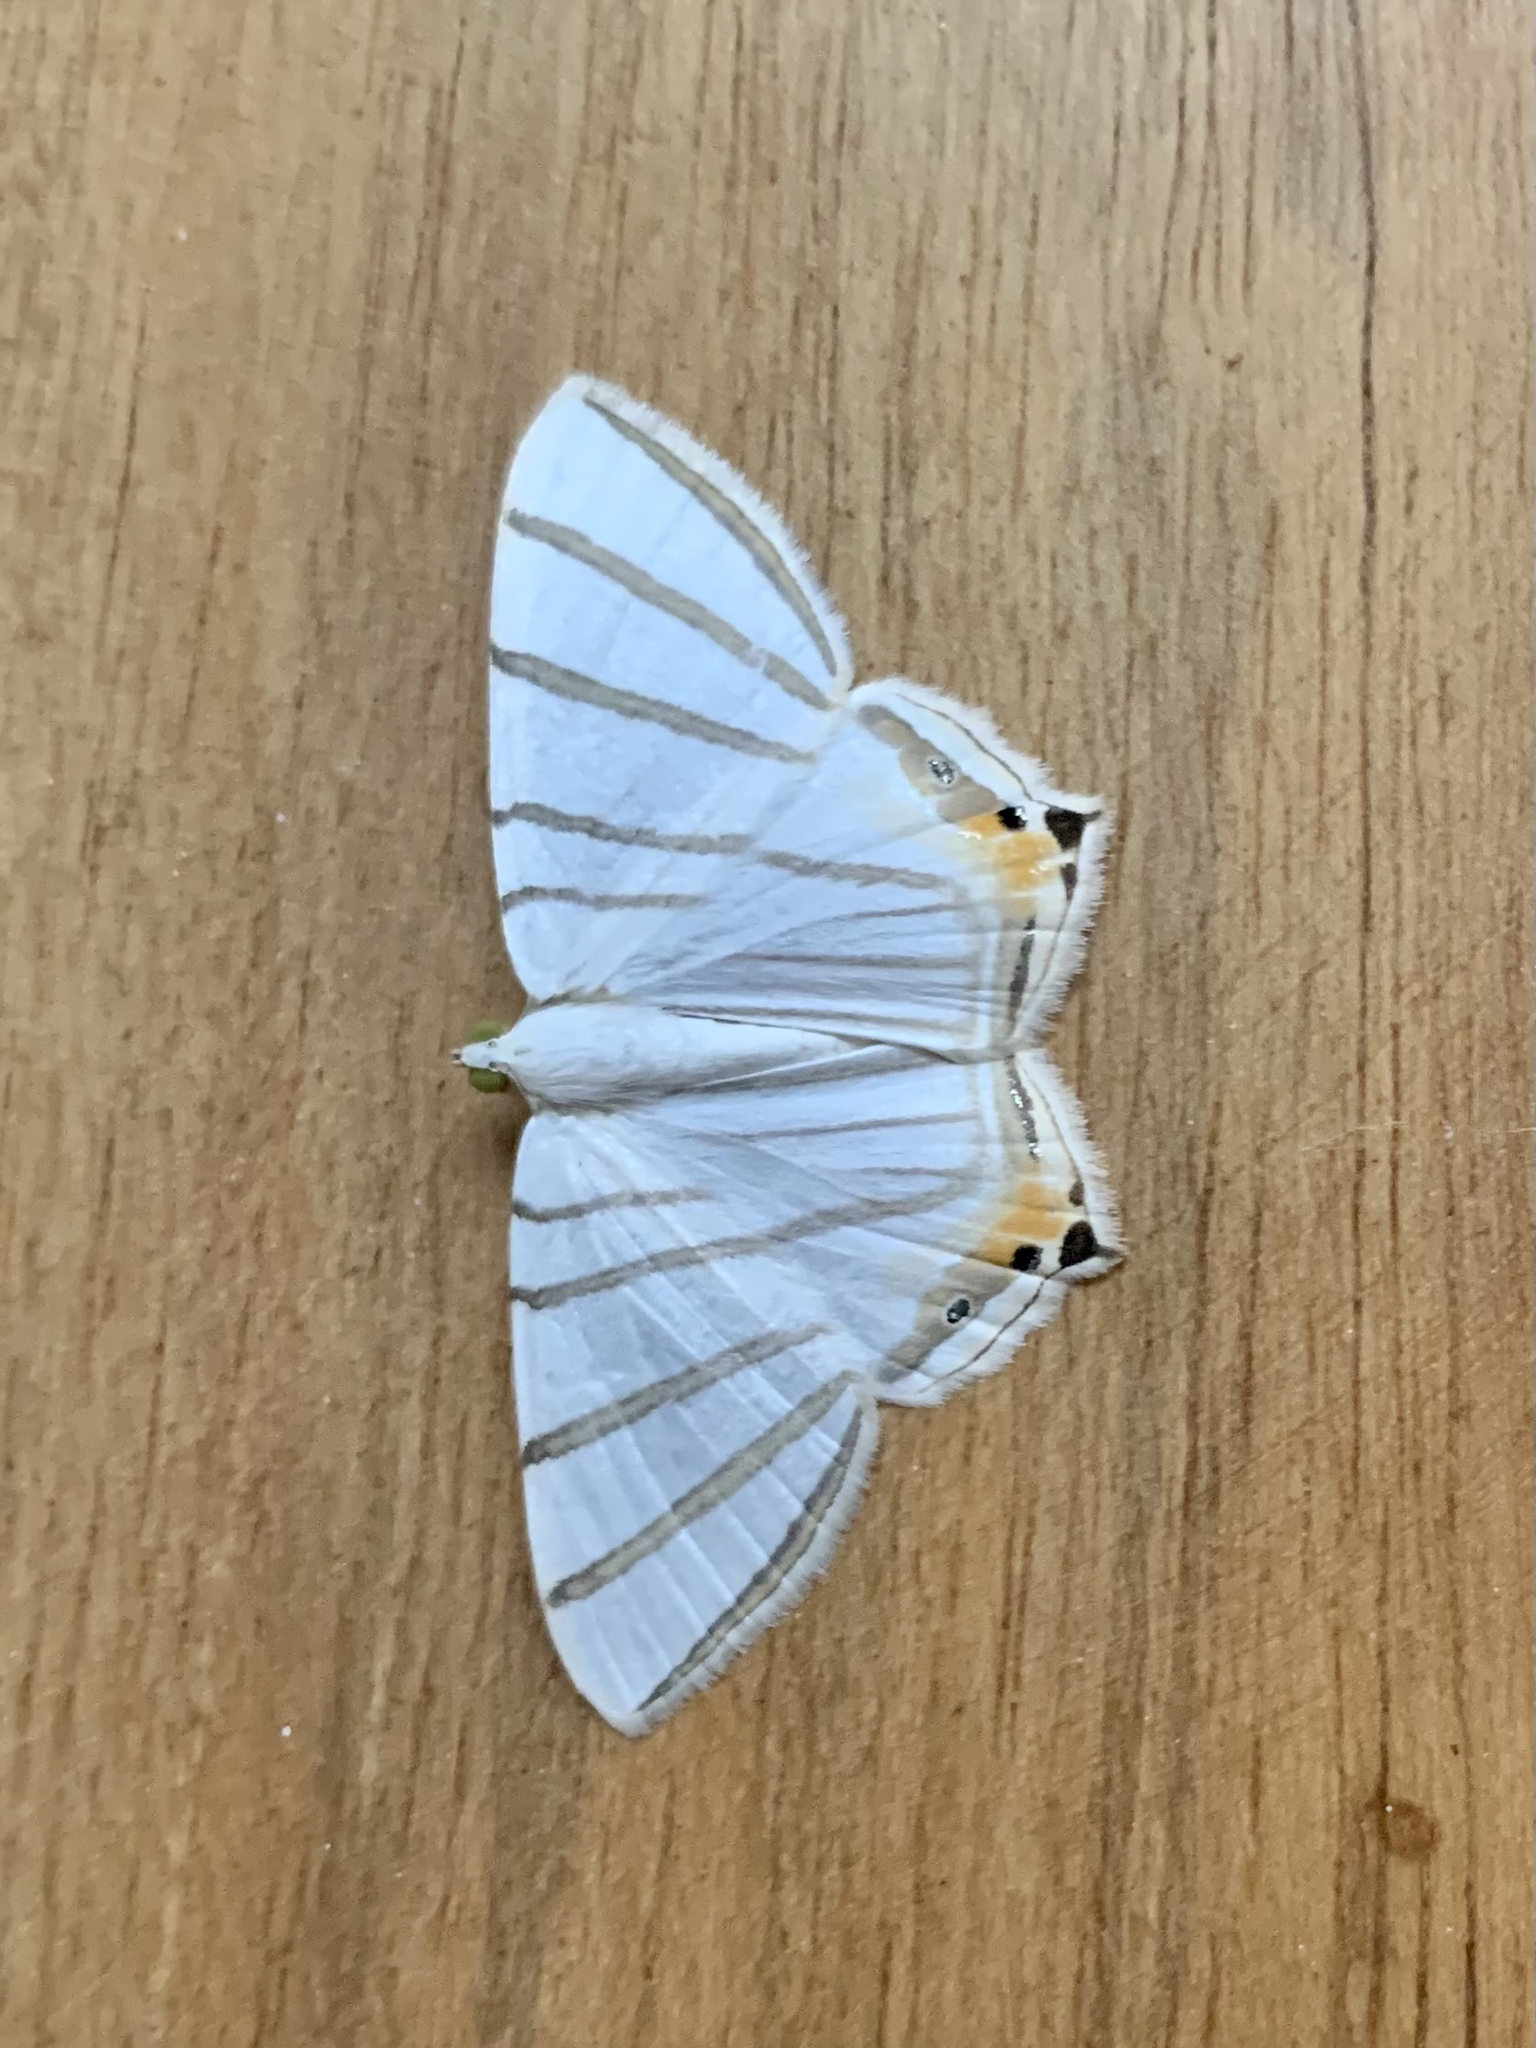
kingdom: Animalia
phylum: Arthropoda
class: Insecta
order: Lepidoptera
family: Geometridae
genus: Opisthoxia
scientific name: Opisthoxia metargyria
